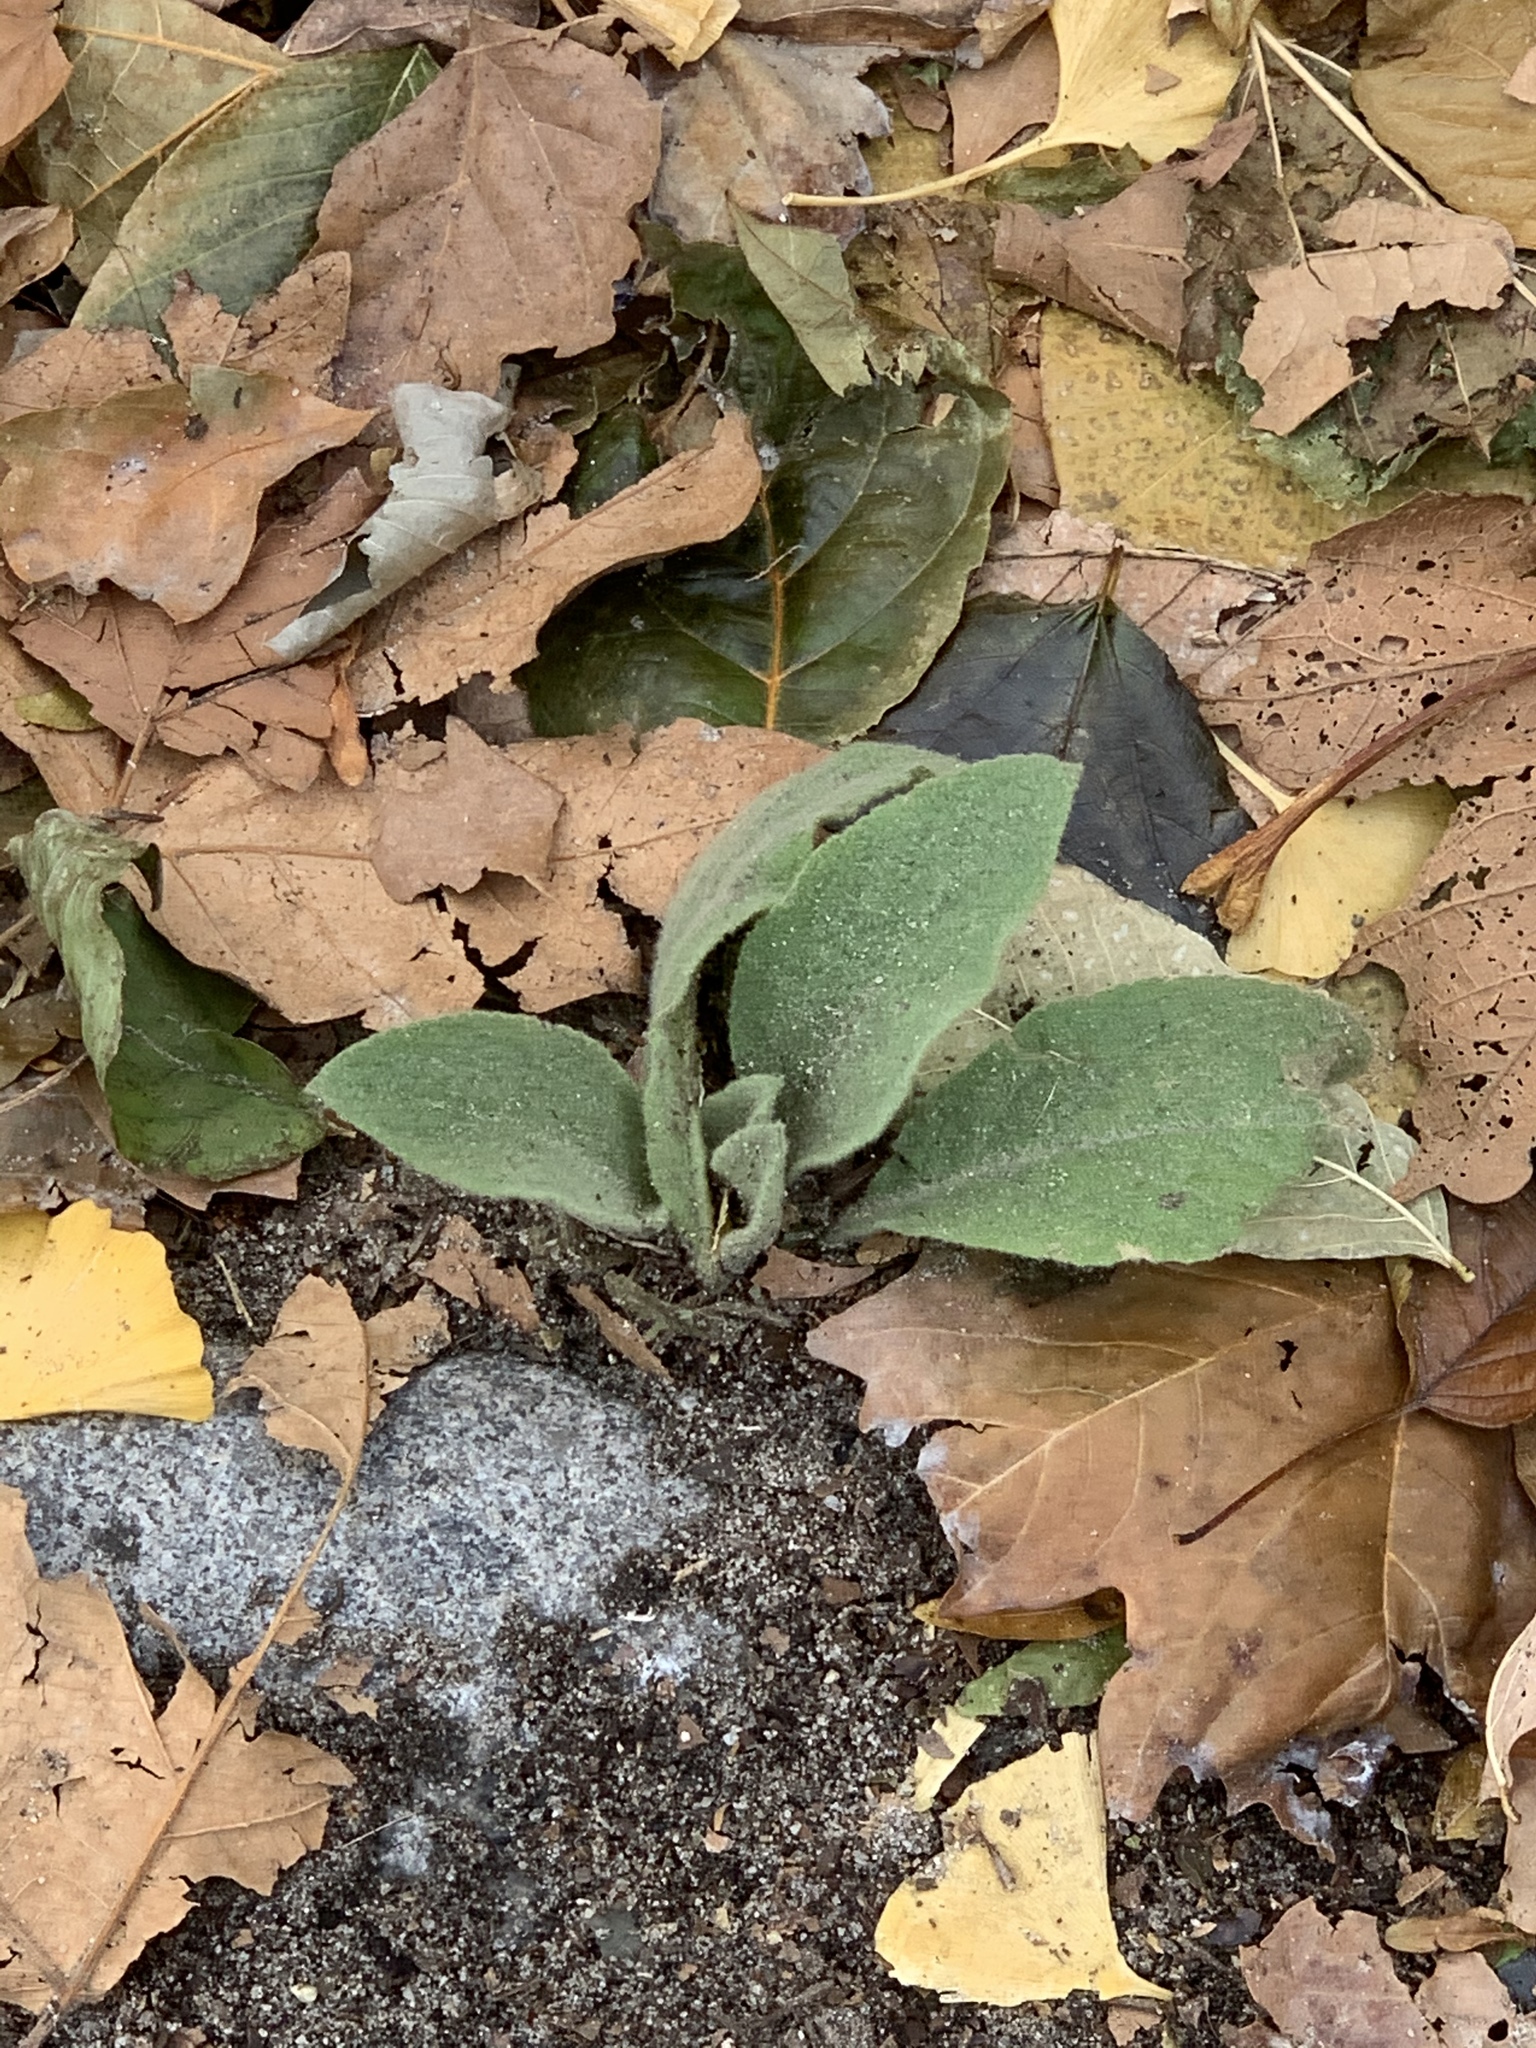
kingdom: Plantae
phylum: Tracheophyta
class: Magnoliopsida
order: Lamiales
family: Scrophulariaceae
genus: Verbascum
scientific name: Verbascum thapsus
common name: Common mullein
